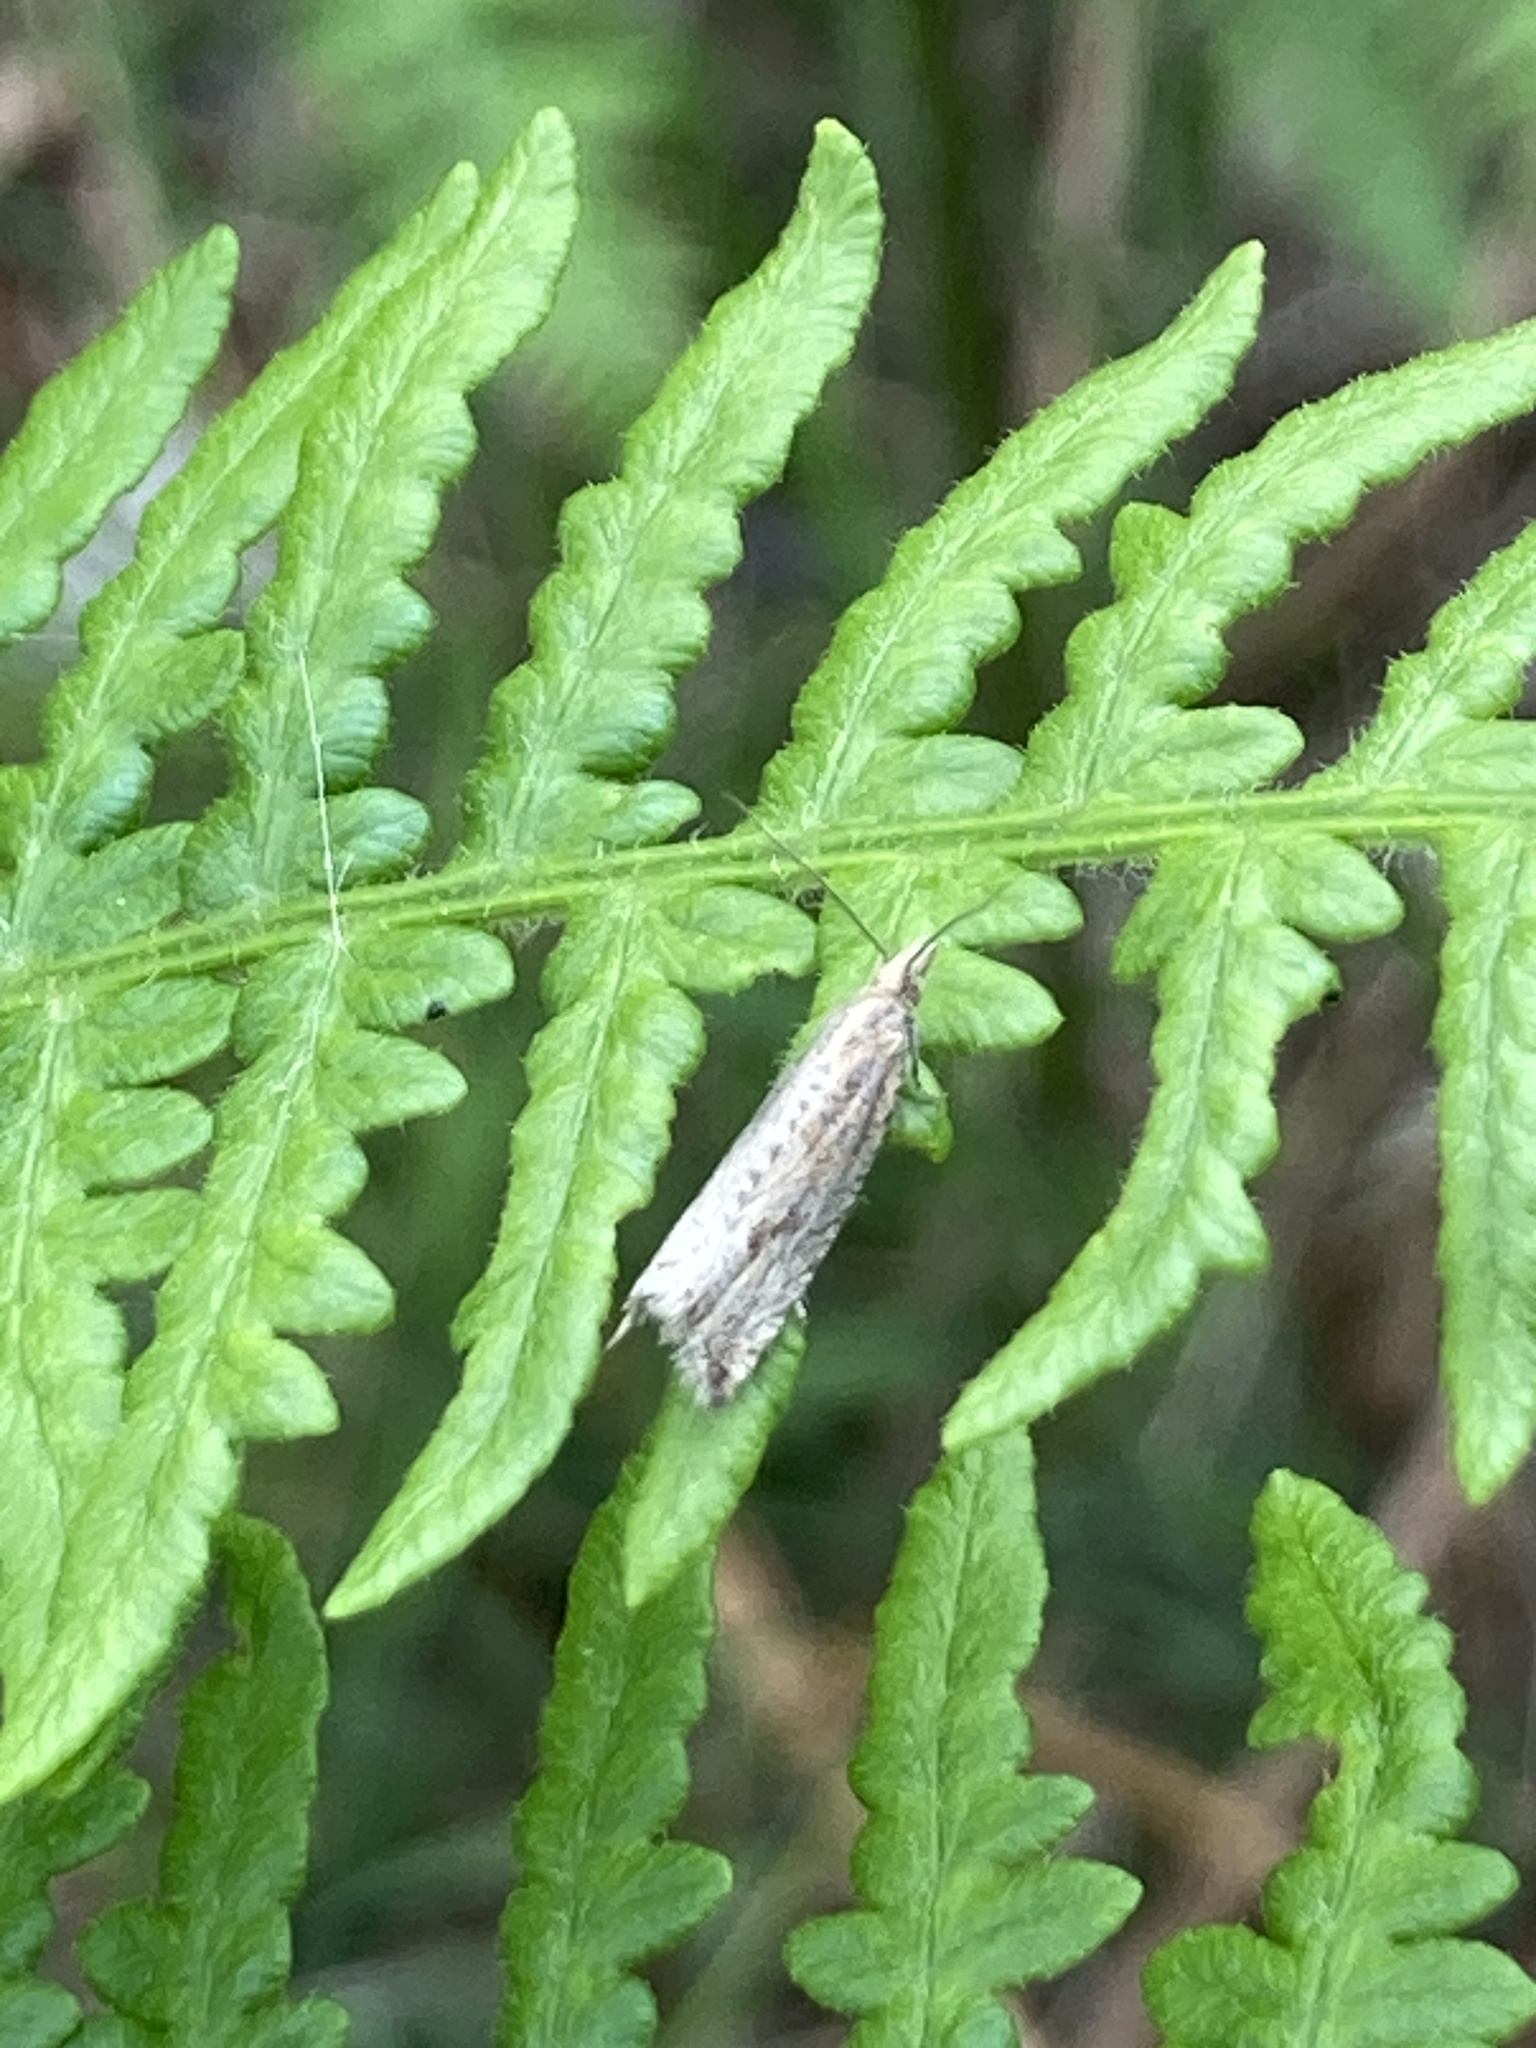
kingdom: Animalia
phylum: Arthropoda
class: Insecta
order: Lepidoptera
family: Tortricidae
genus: Bactra
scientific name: Bactra furfurana
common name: Mottled marble
